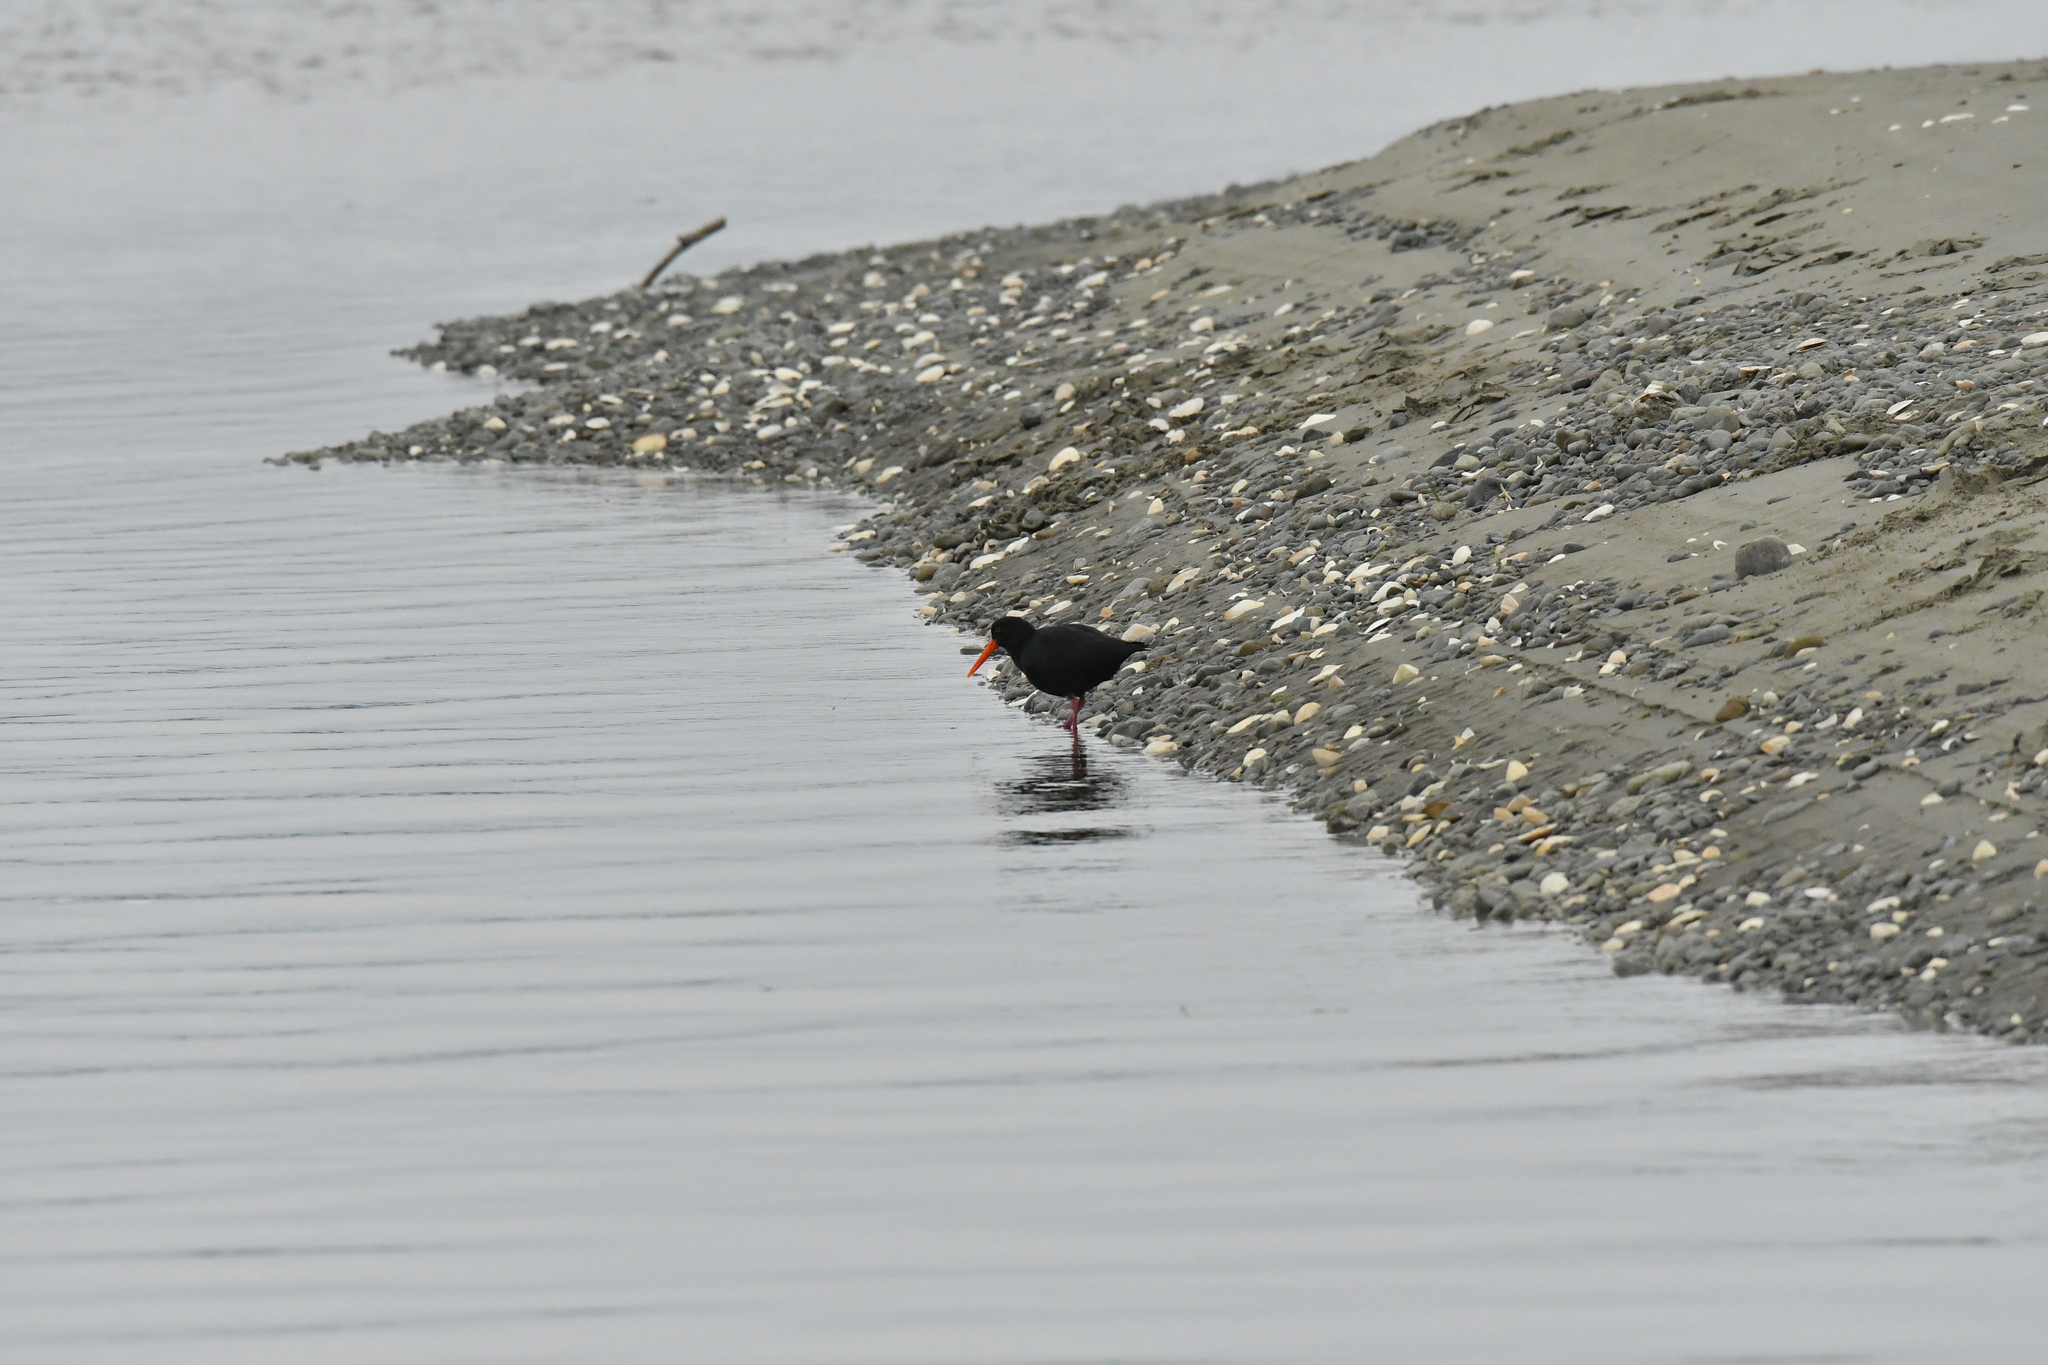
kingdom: Animalia
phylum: Chordata
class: Aves
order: Charadriiformes
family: Haematopodidae
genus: Haematopus
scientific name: Haematopus unicolor
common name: Variable oystercatcher
